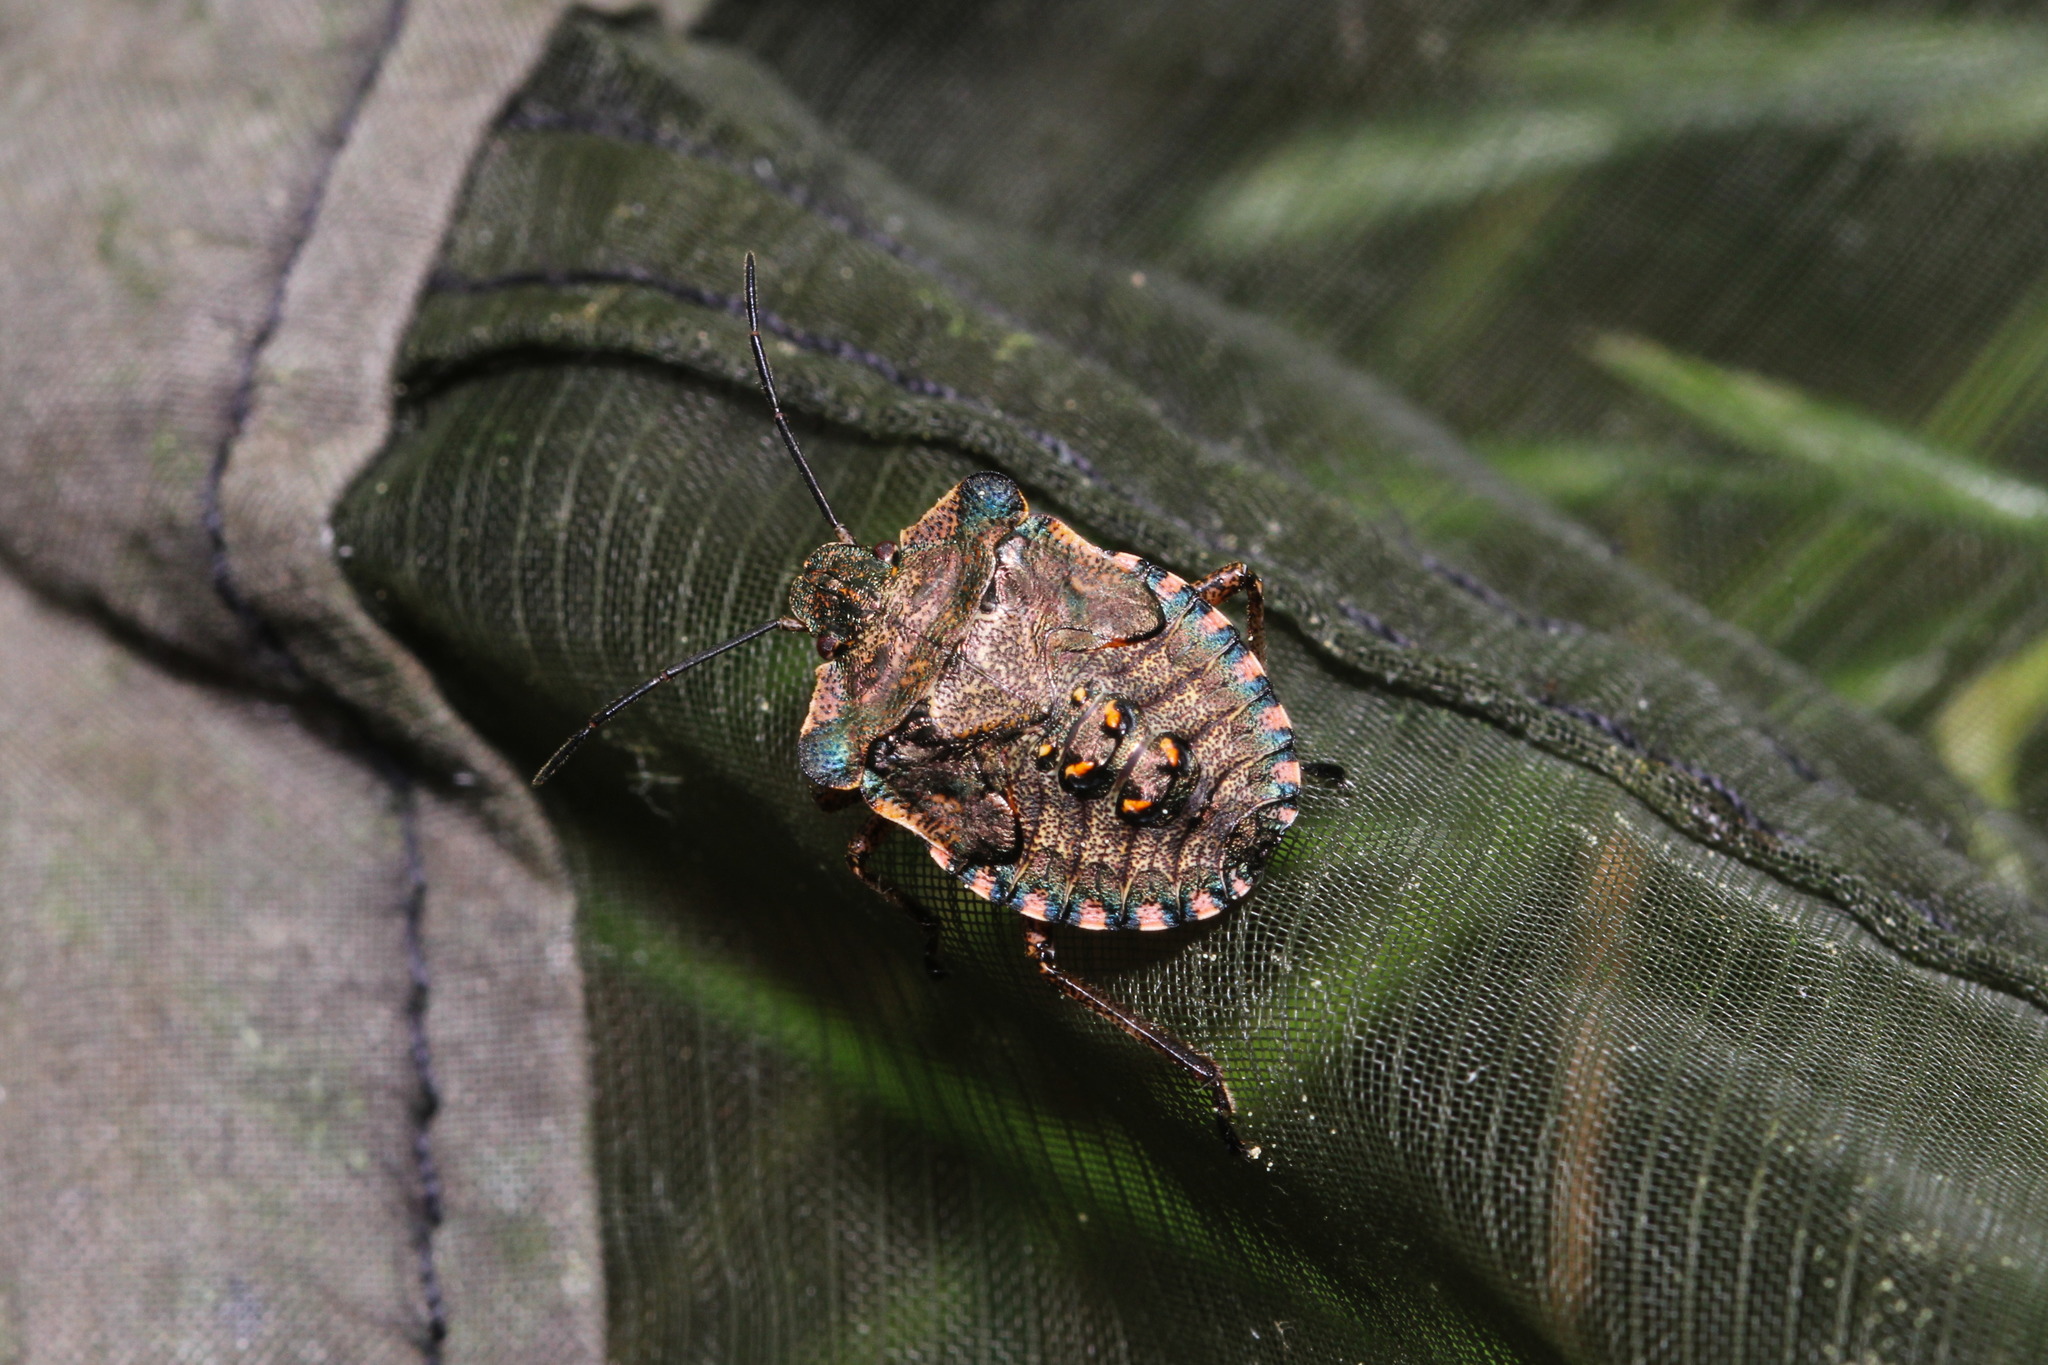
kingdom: Animalia
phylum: Arthropoda
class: Insecta
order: Hemiptera
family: Pentatomidae
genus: Pentatoma
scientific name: Pentatoma rufipes
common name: Forest bug
